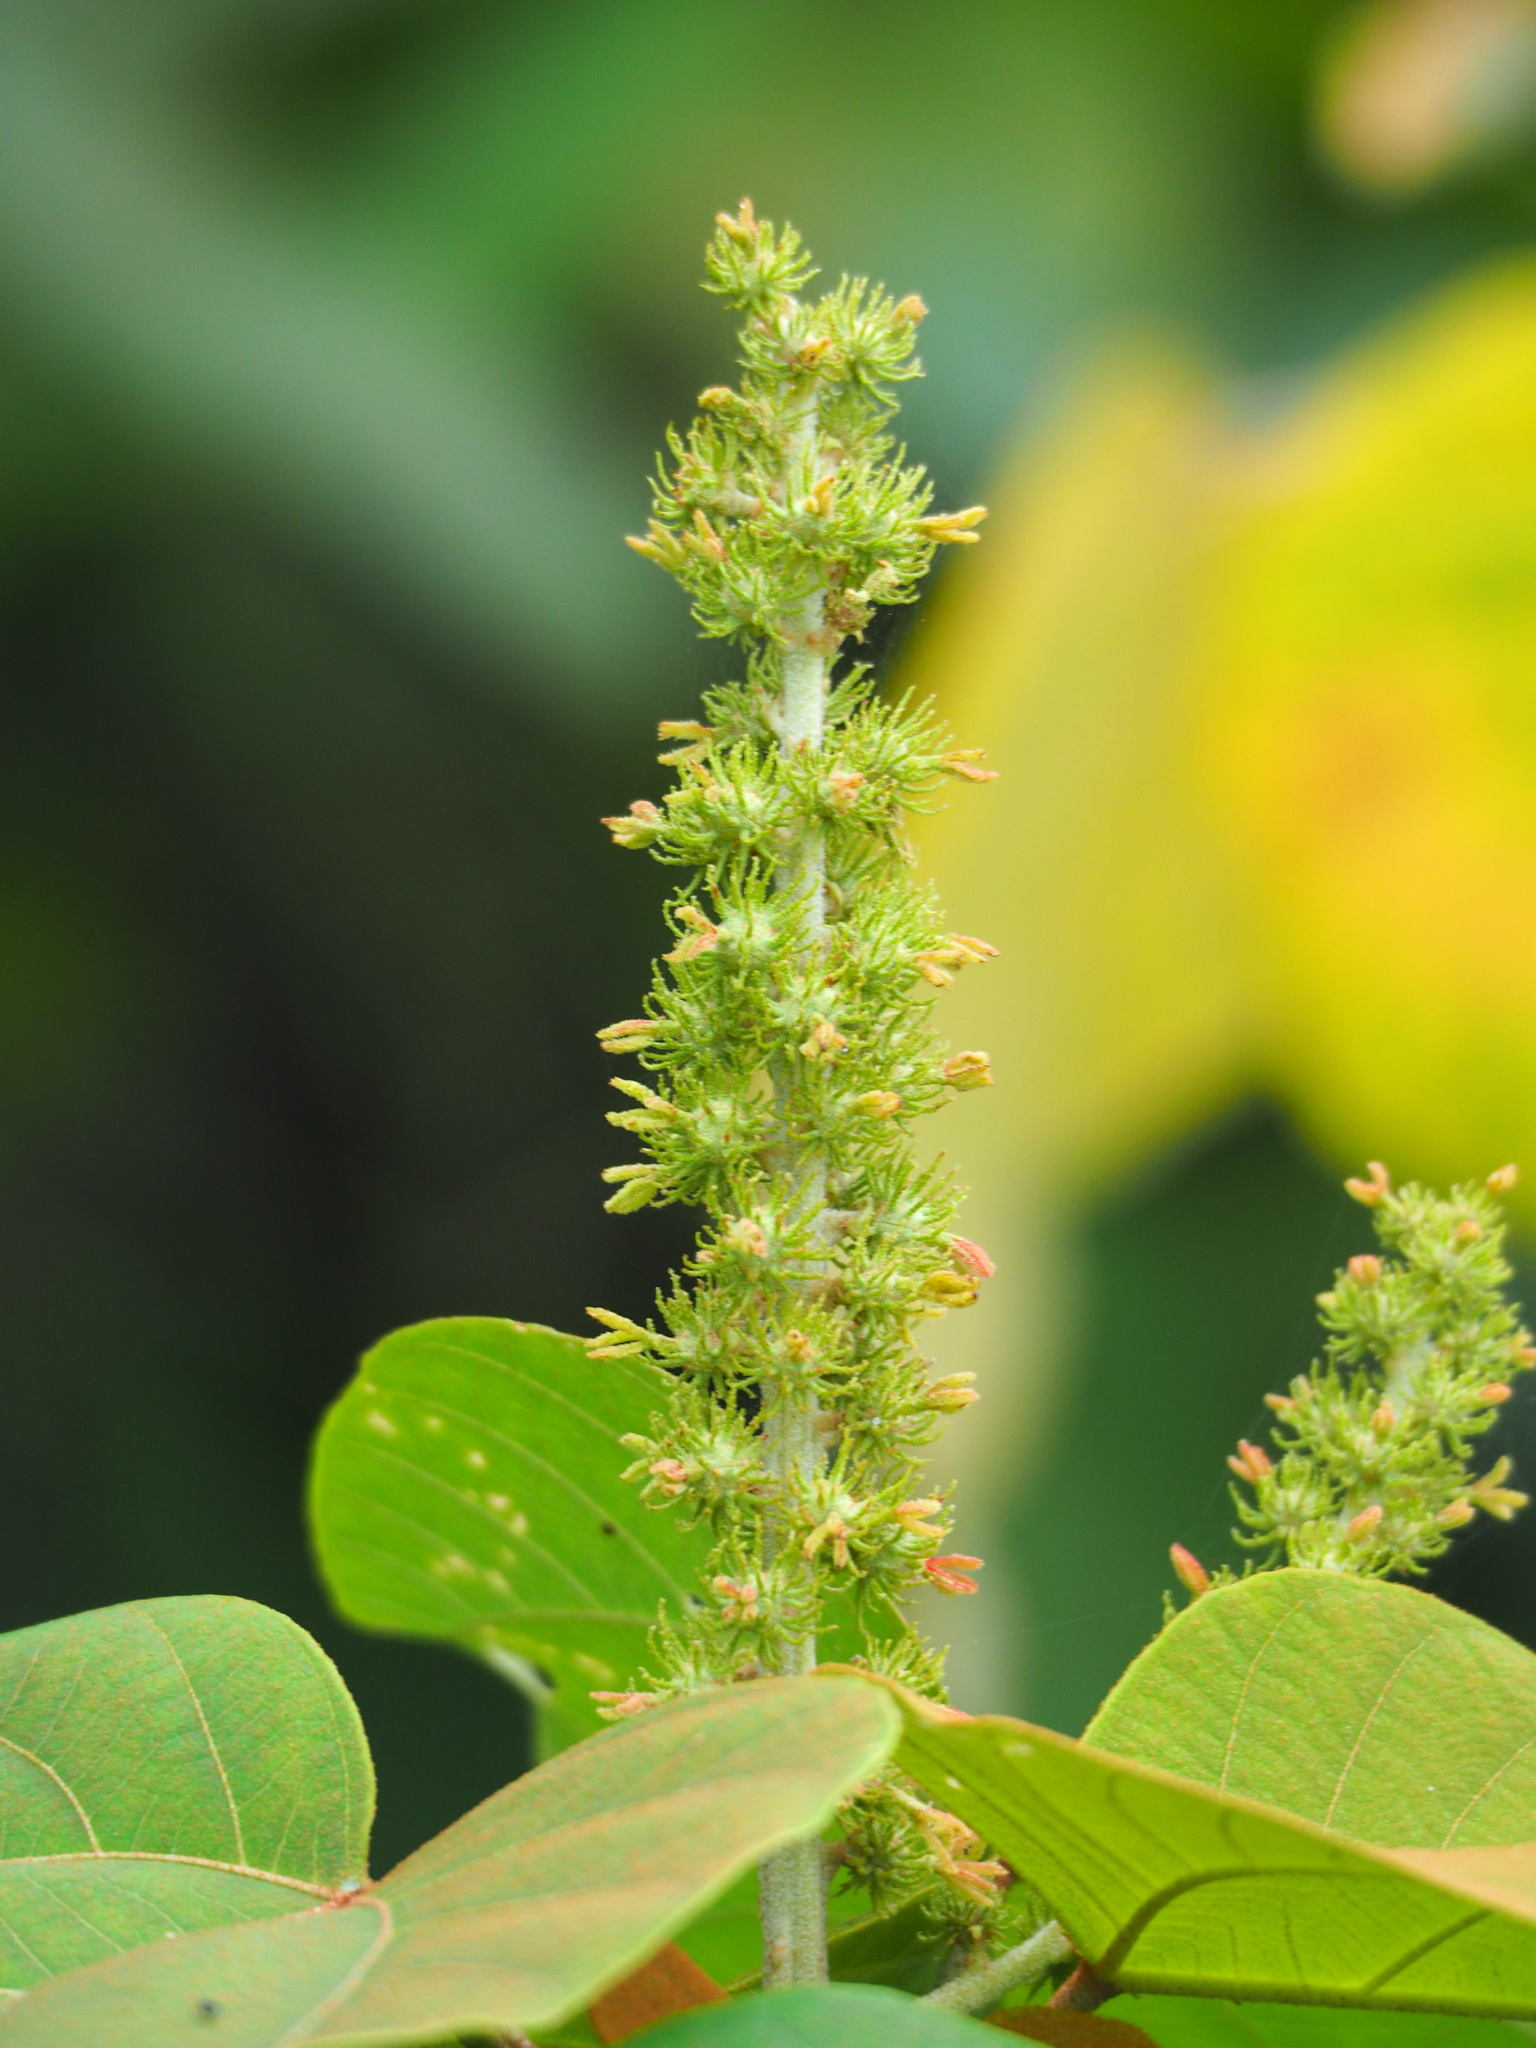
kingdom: Plantae
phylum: Tracheophyta
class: Magnoliopsida
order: Malpighiales
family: Euphorbiaceae
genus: Mallotus
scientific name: Mallotus japonicus
